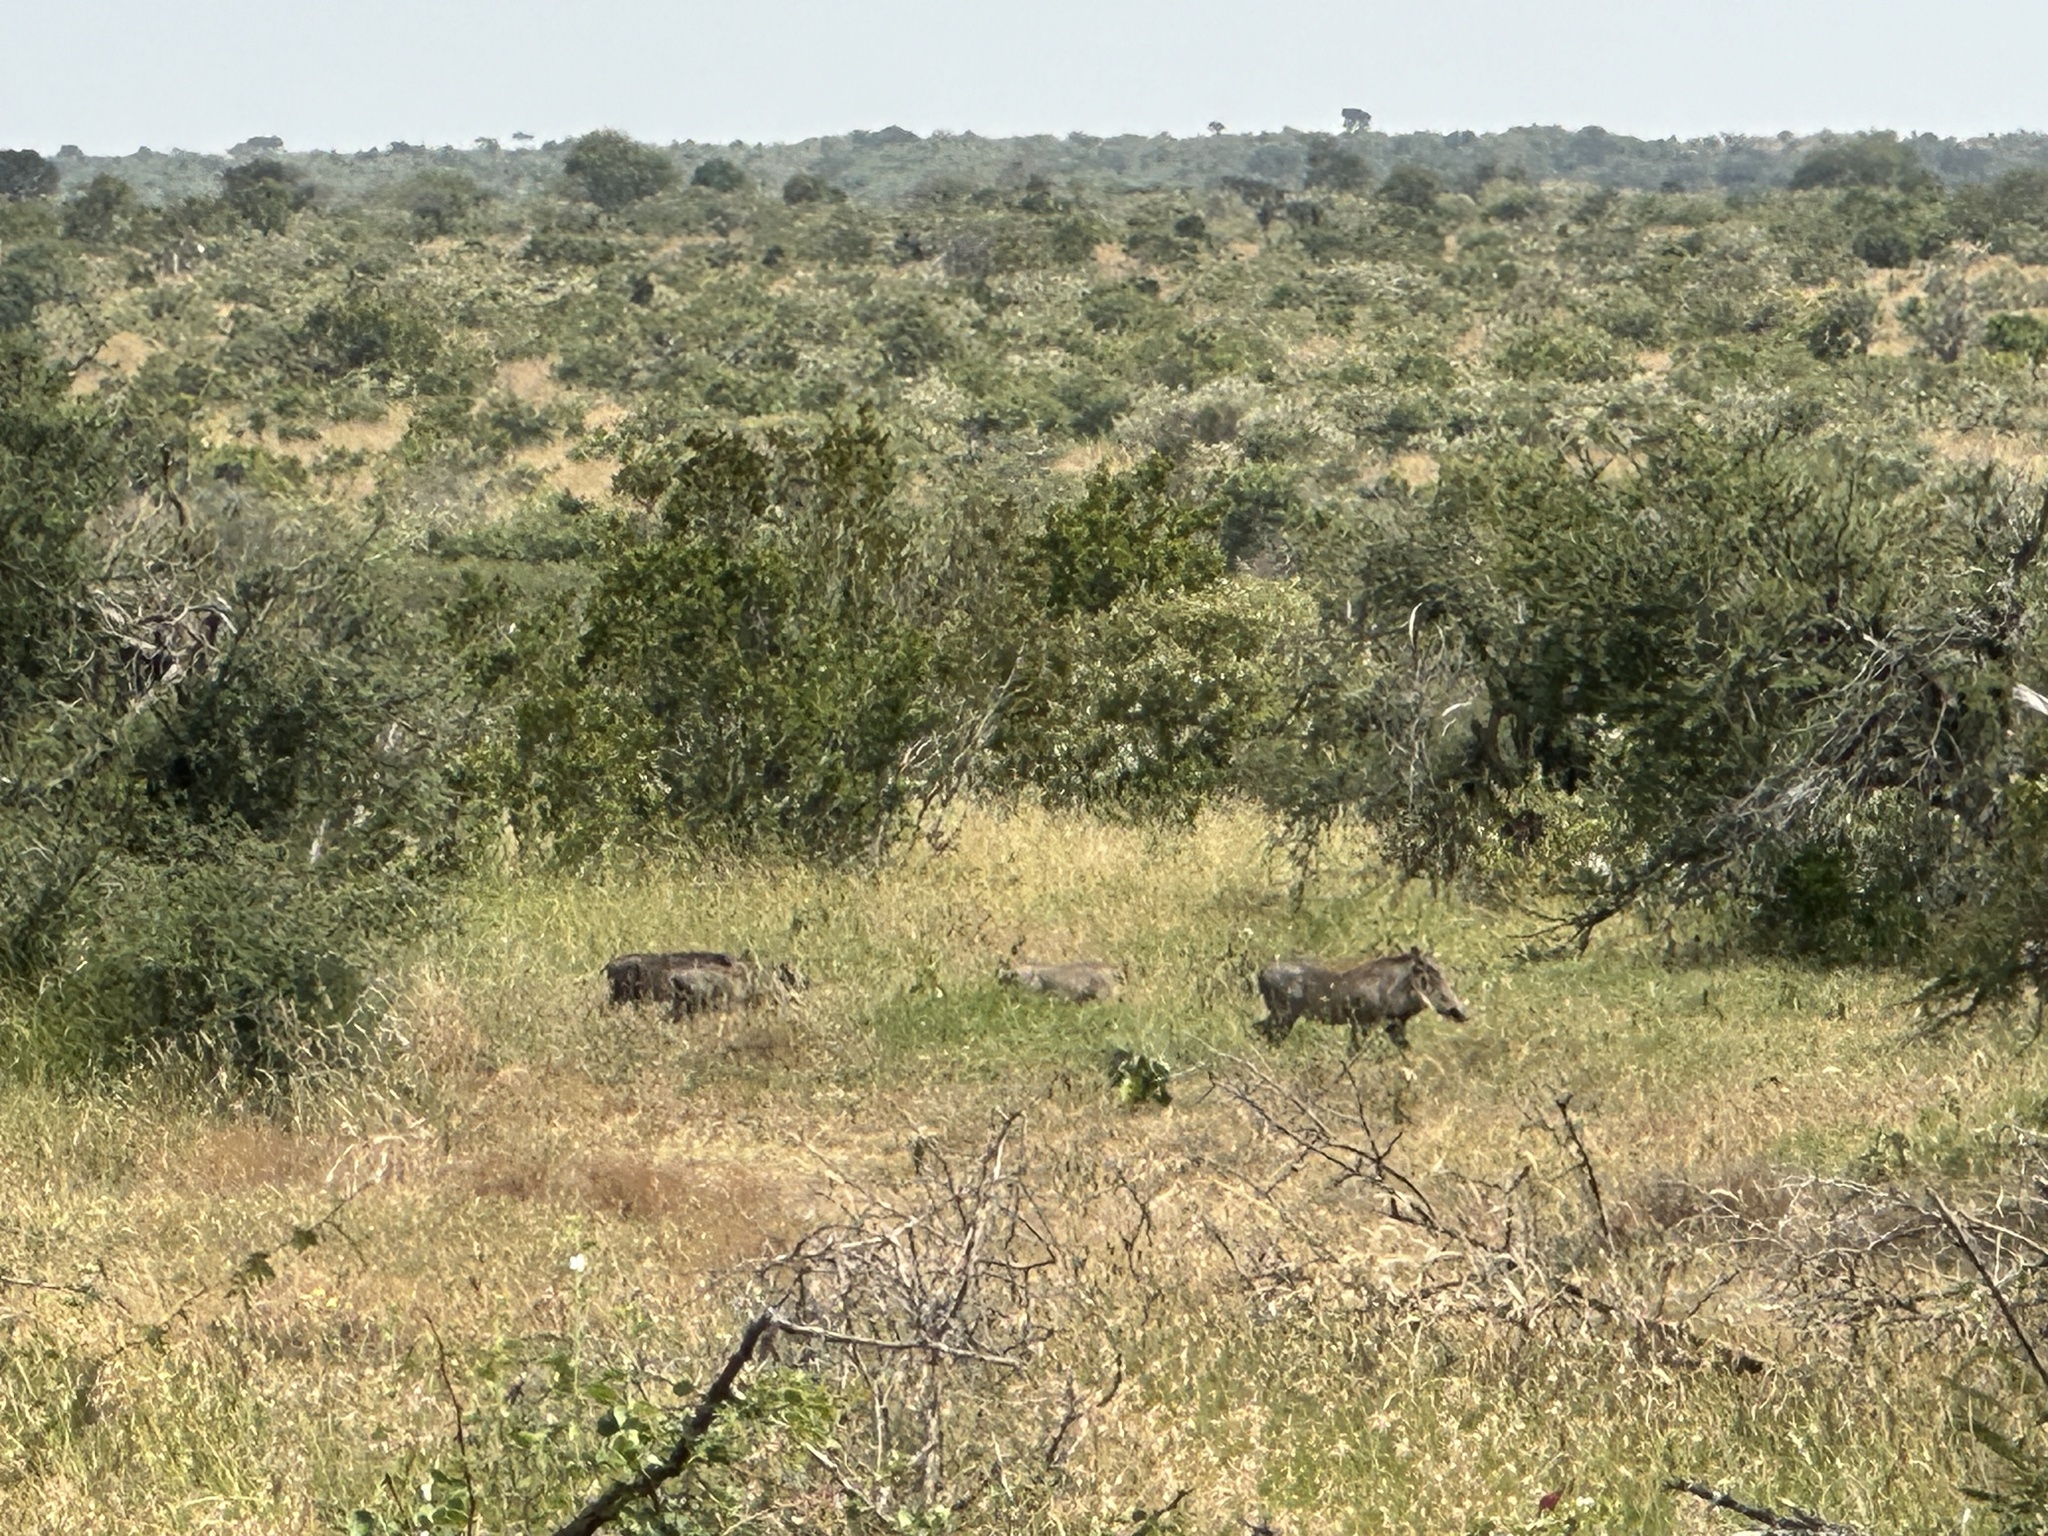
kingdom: Animalia
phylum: Chordata
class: Mammalia
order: Artiodactyla
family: Suidae
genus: Phacochoerus
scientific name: Phacochoerus africanus
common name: Common warthog
